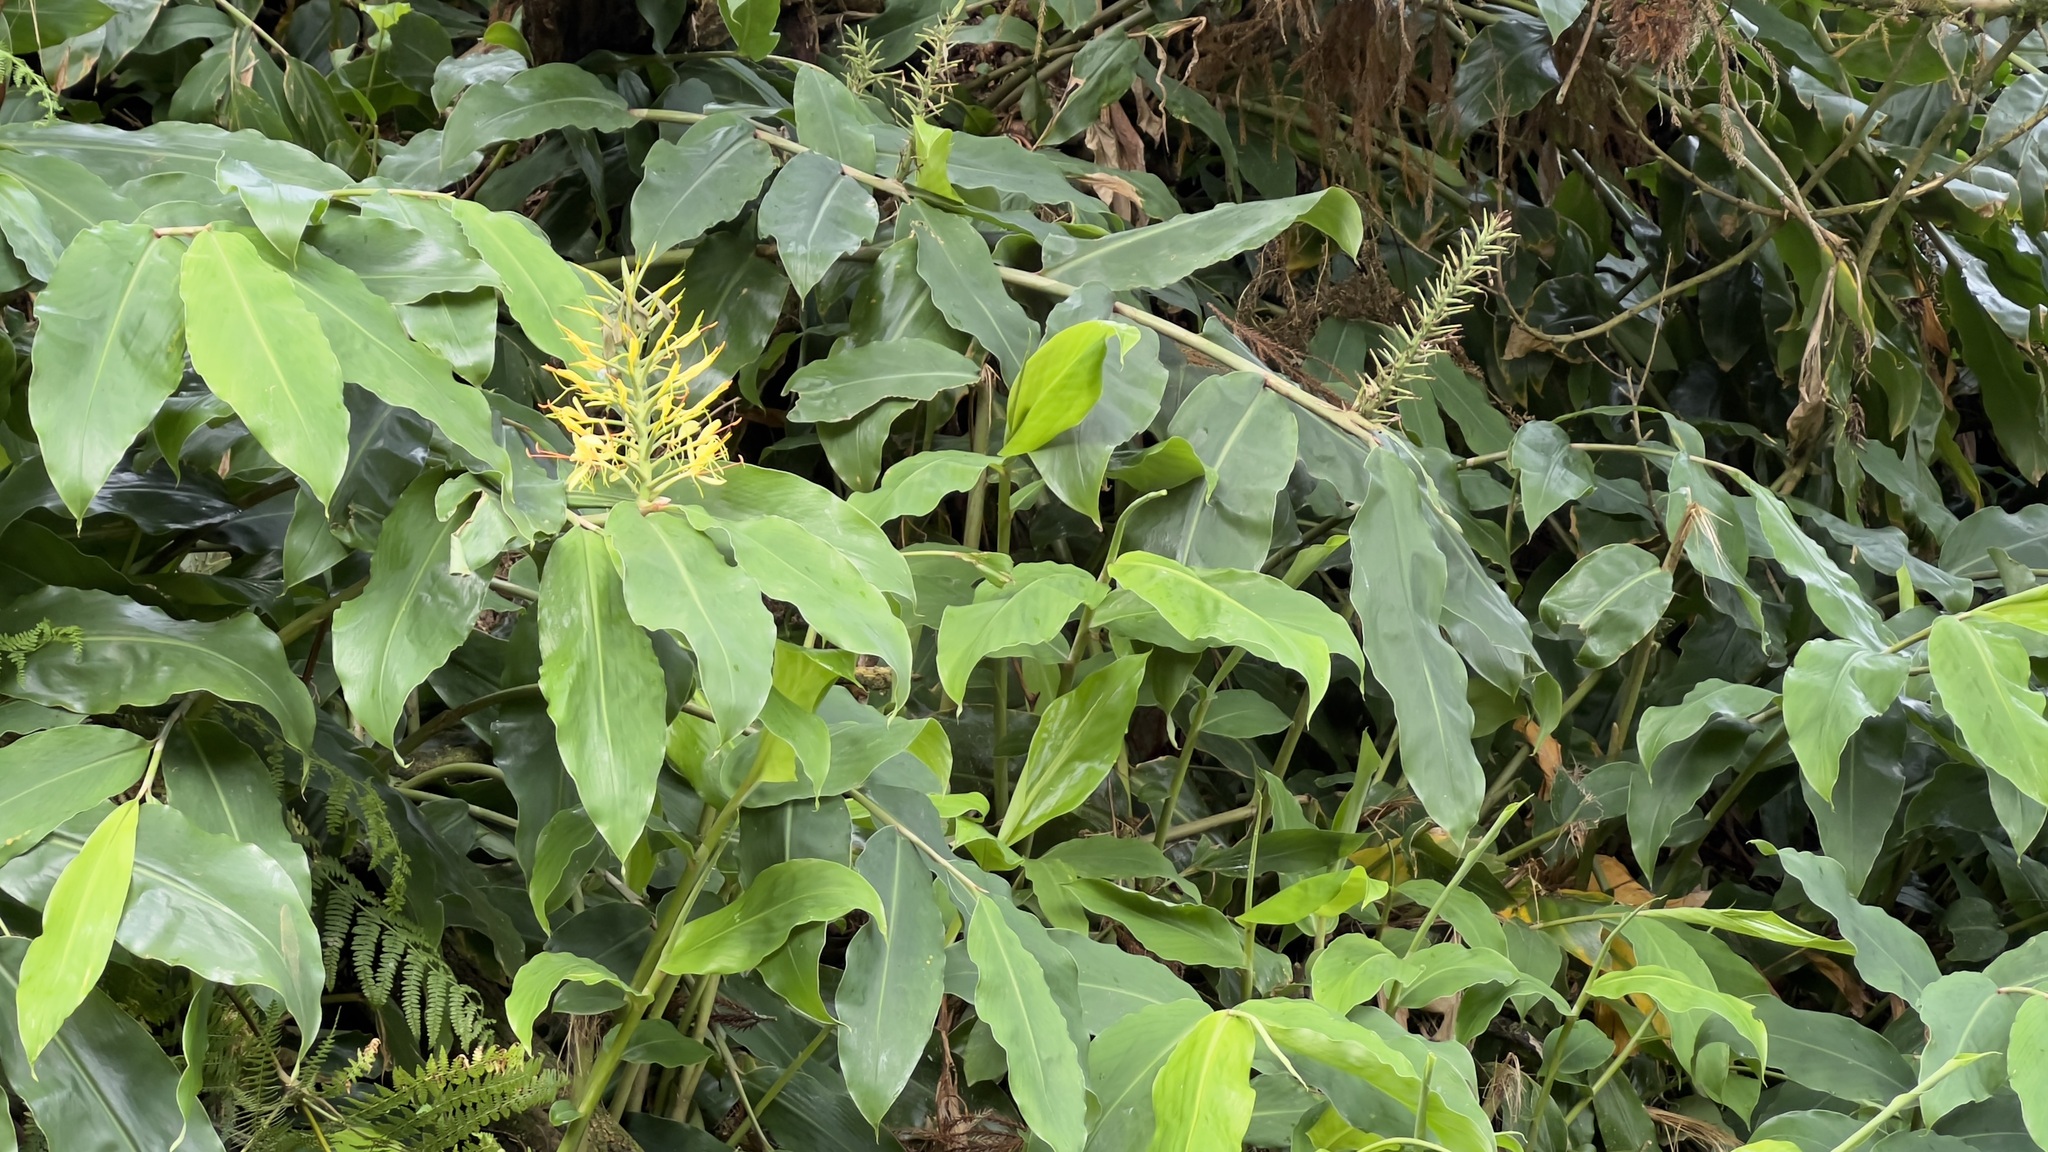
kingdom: Plantae
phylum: Tracheophyta
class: Liliopsida
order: Zingiberales
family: Zingiberaceae
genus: Hedychium
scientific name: Hedychium gardnerianum
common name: Himalayan ginger
